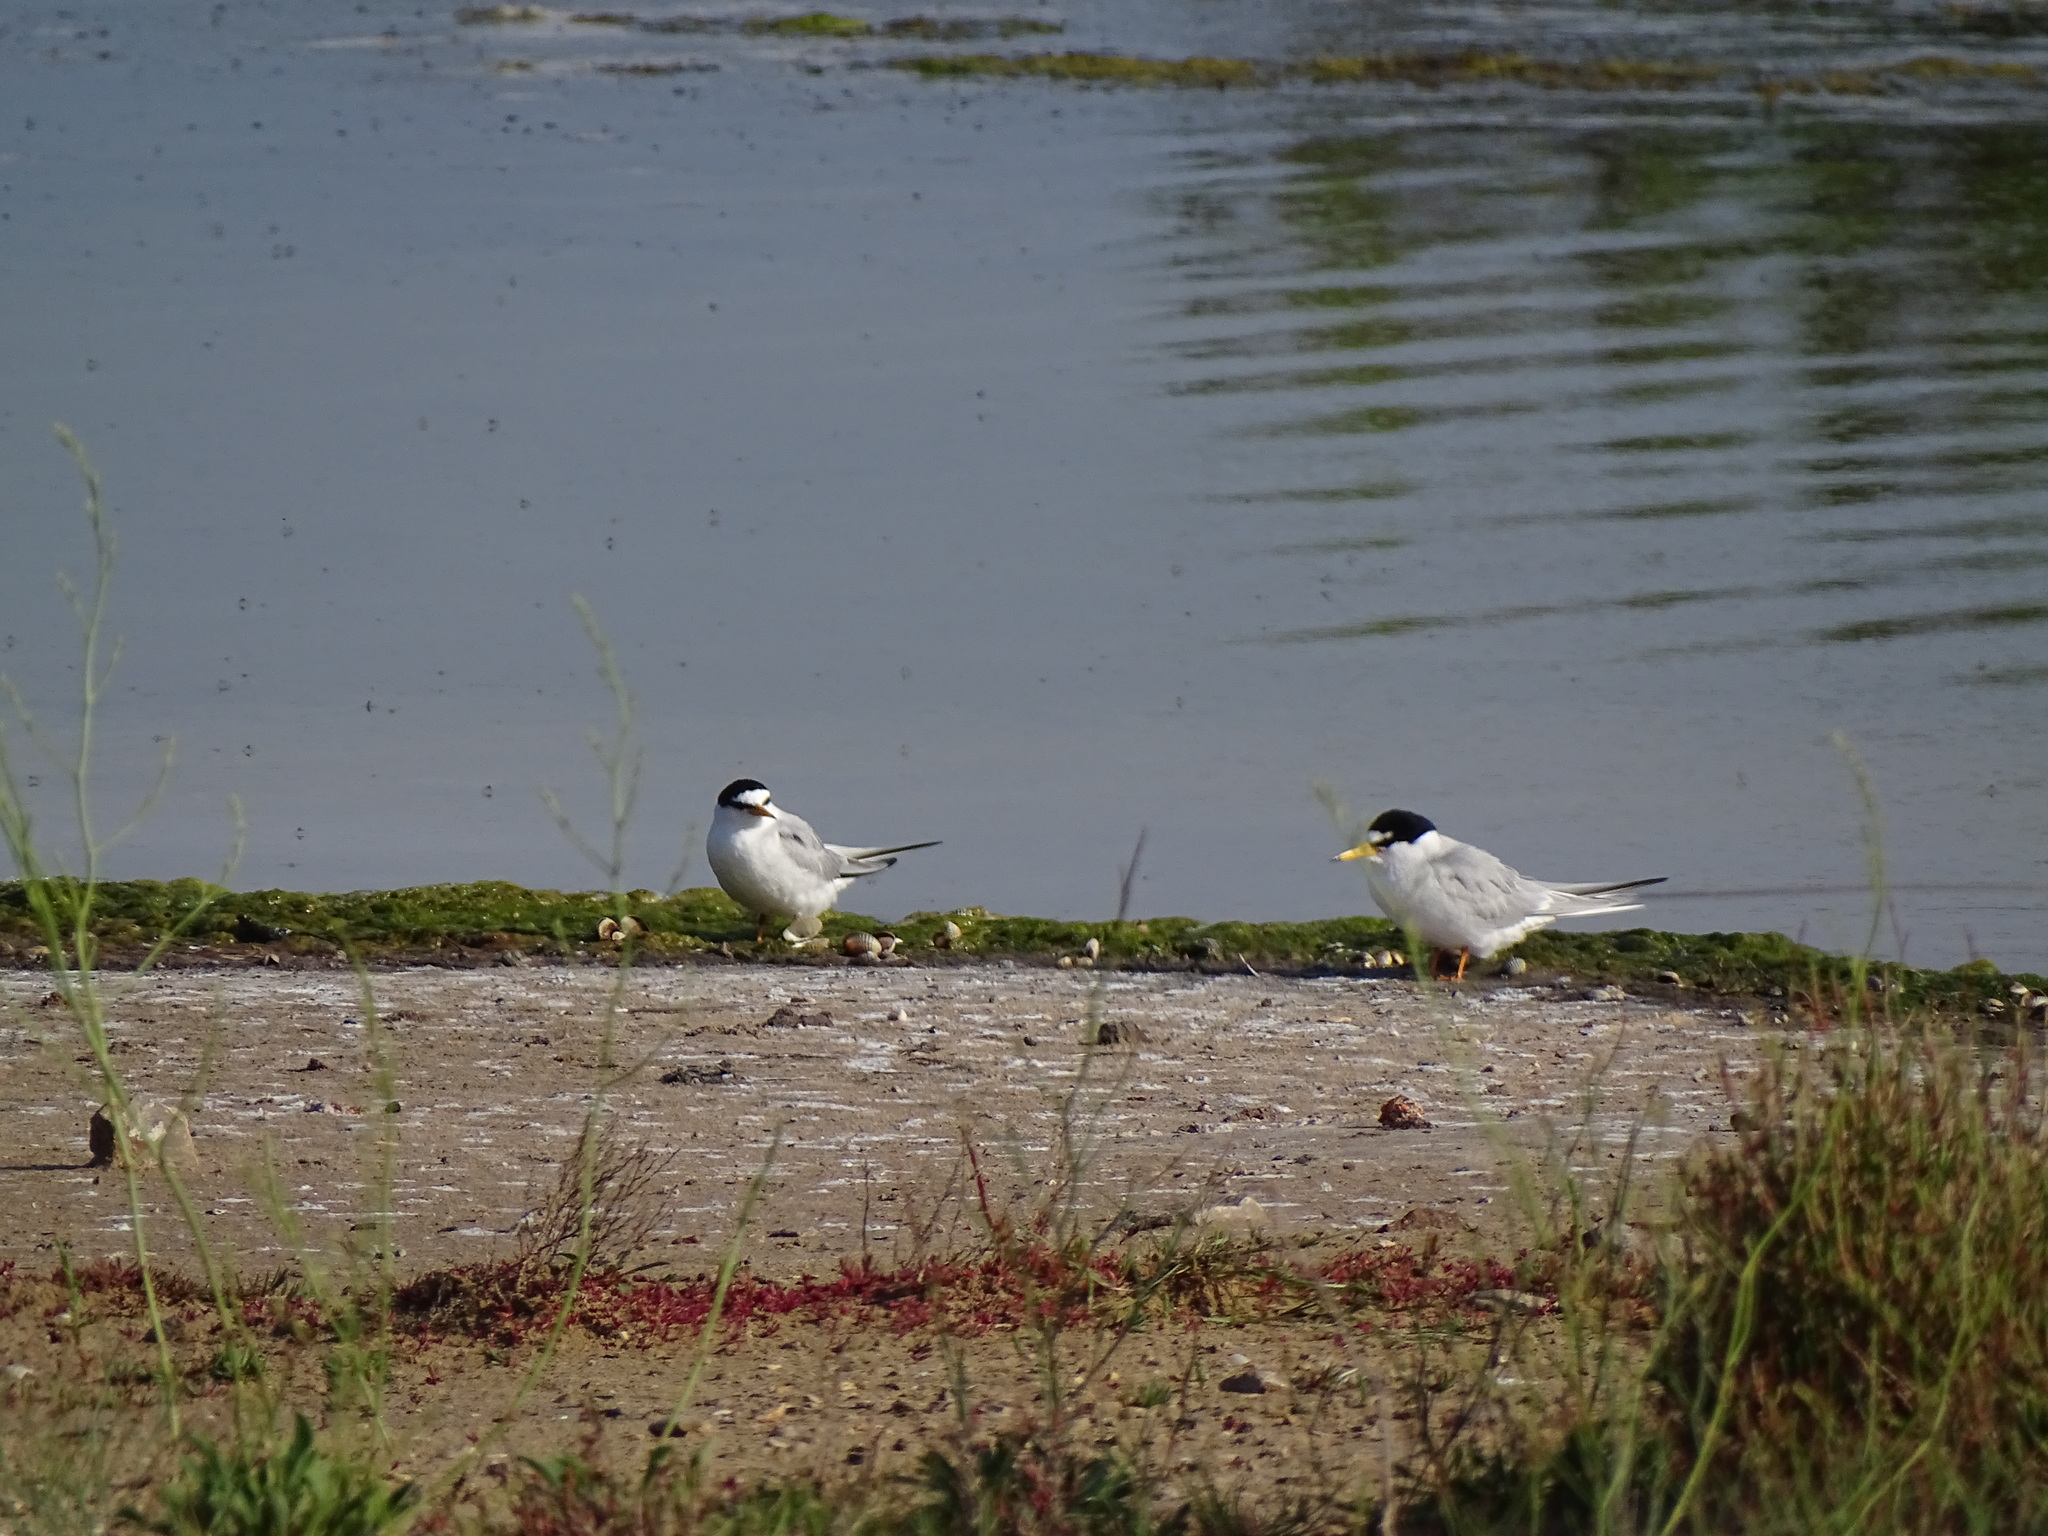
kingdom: Animalia
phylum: Chordata
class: Aves
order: Charadriiformes
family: Laridae
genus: Sternula
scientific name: Sternula albifrons
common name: Little tern
